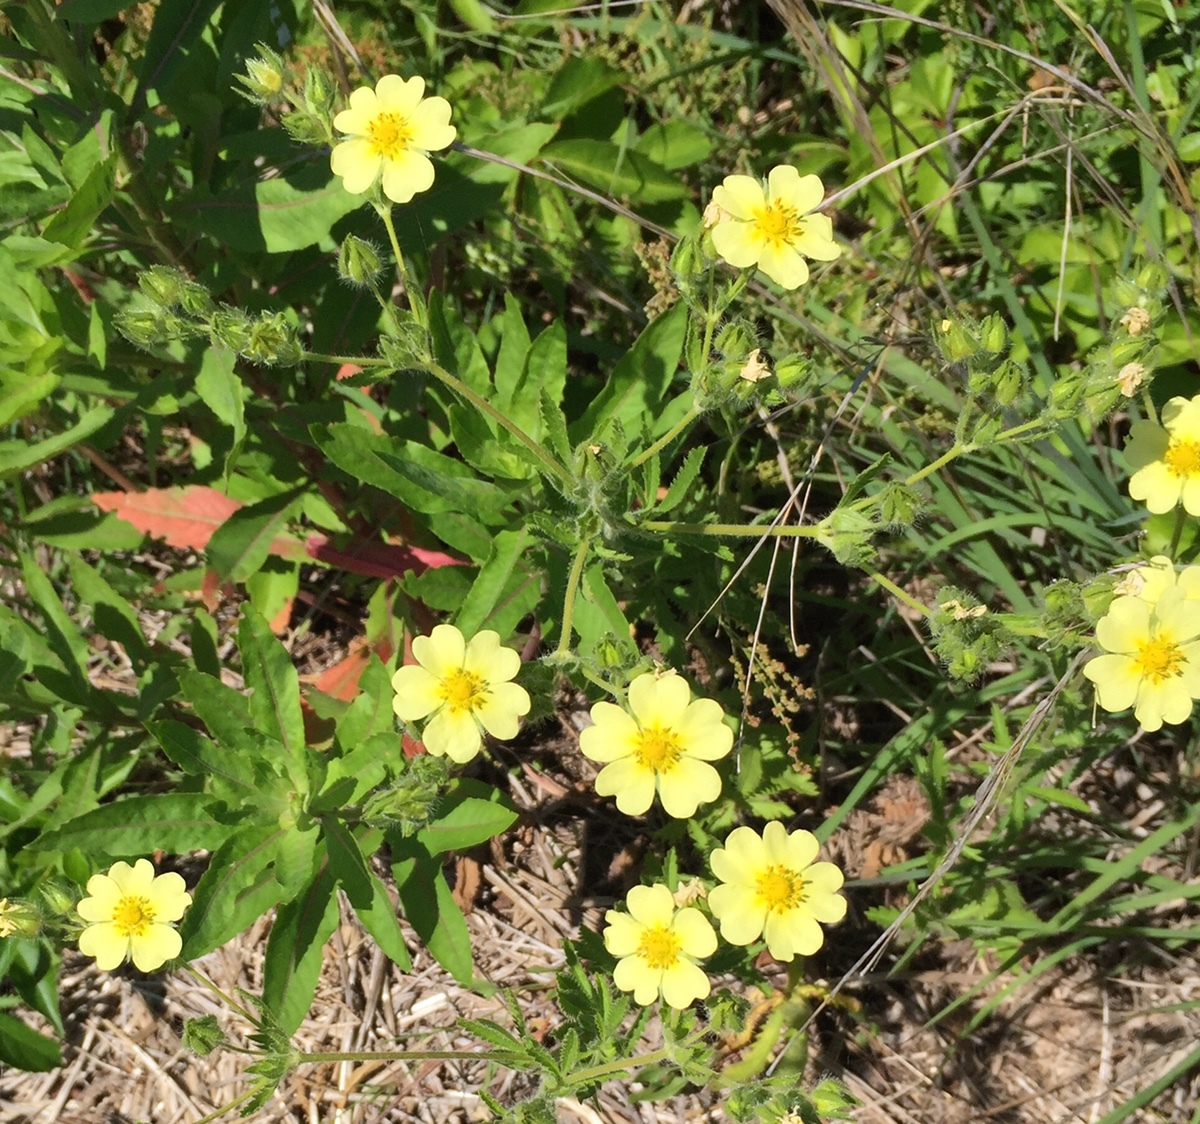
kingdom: Plantae
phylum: Tracheophyta
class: Magnoliopsida
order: Rosales
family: Rosaceae
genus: Potentilla
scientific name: Potentilla recta
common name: Sulphur cinquefoil
